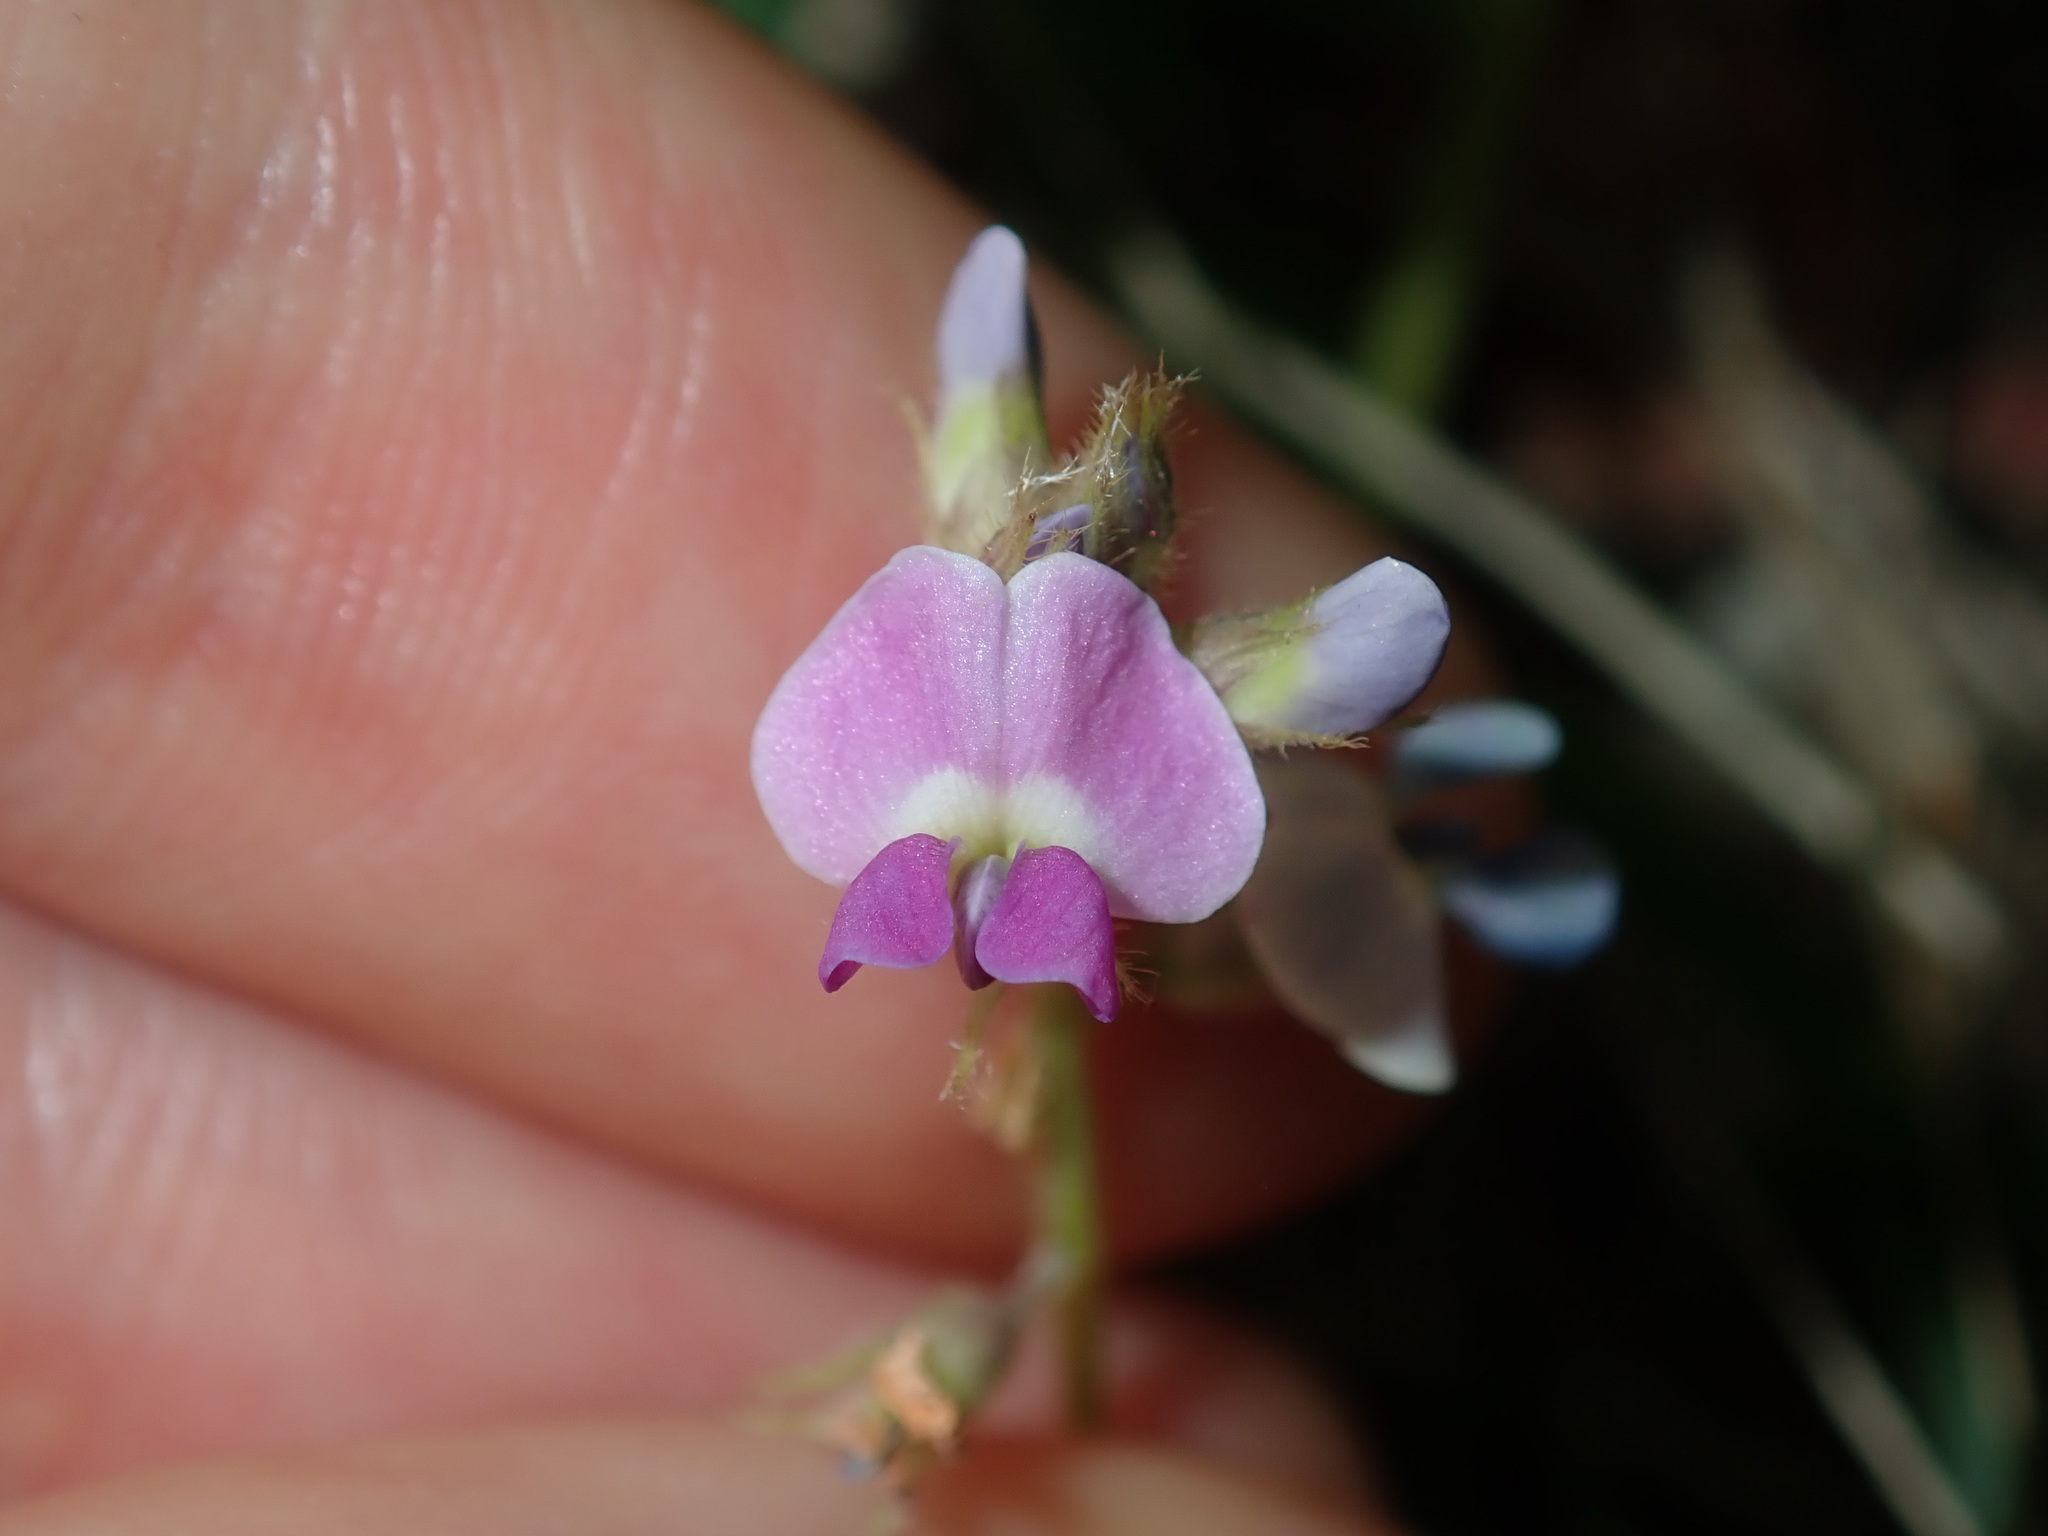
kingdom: Plantae
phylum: Tracheophyta
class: Magnoliopsida
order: Fabales
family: Fabaceae
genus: Glycine
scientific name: Glycine tomentella
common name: Hairy glycine
